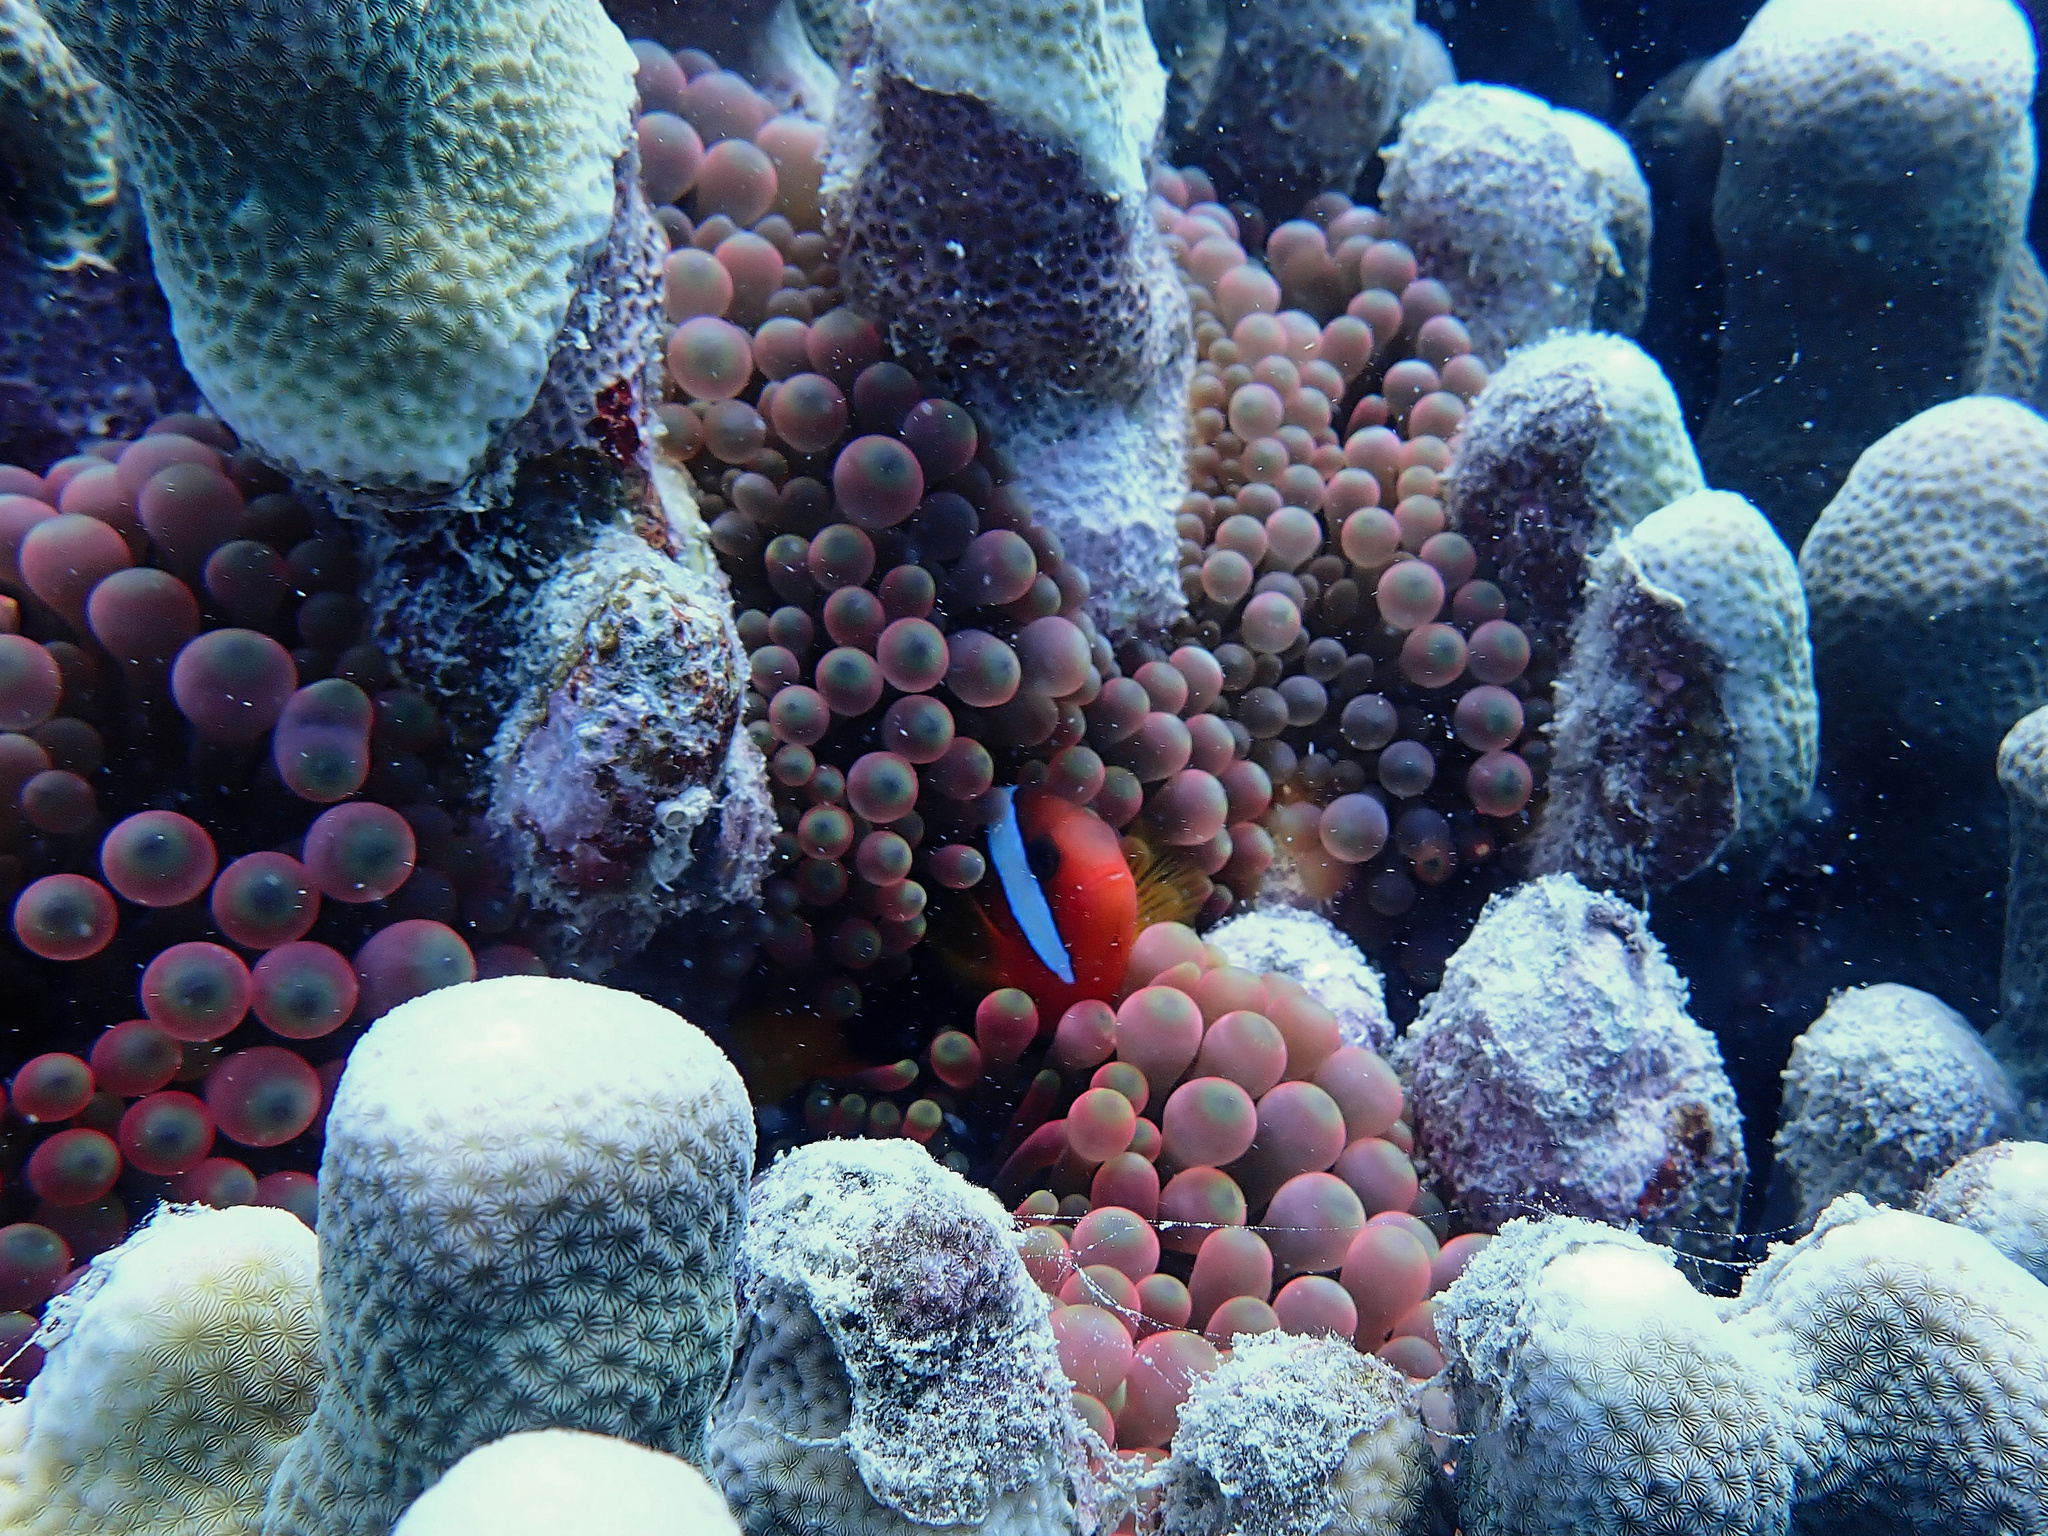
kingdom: Animalia
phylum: Chordata
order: Perciformes
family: Pomacentridae
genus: Amphiprion
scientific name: Amphiprion melanopus
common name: Black anemonefish
